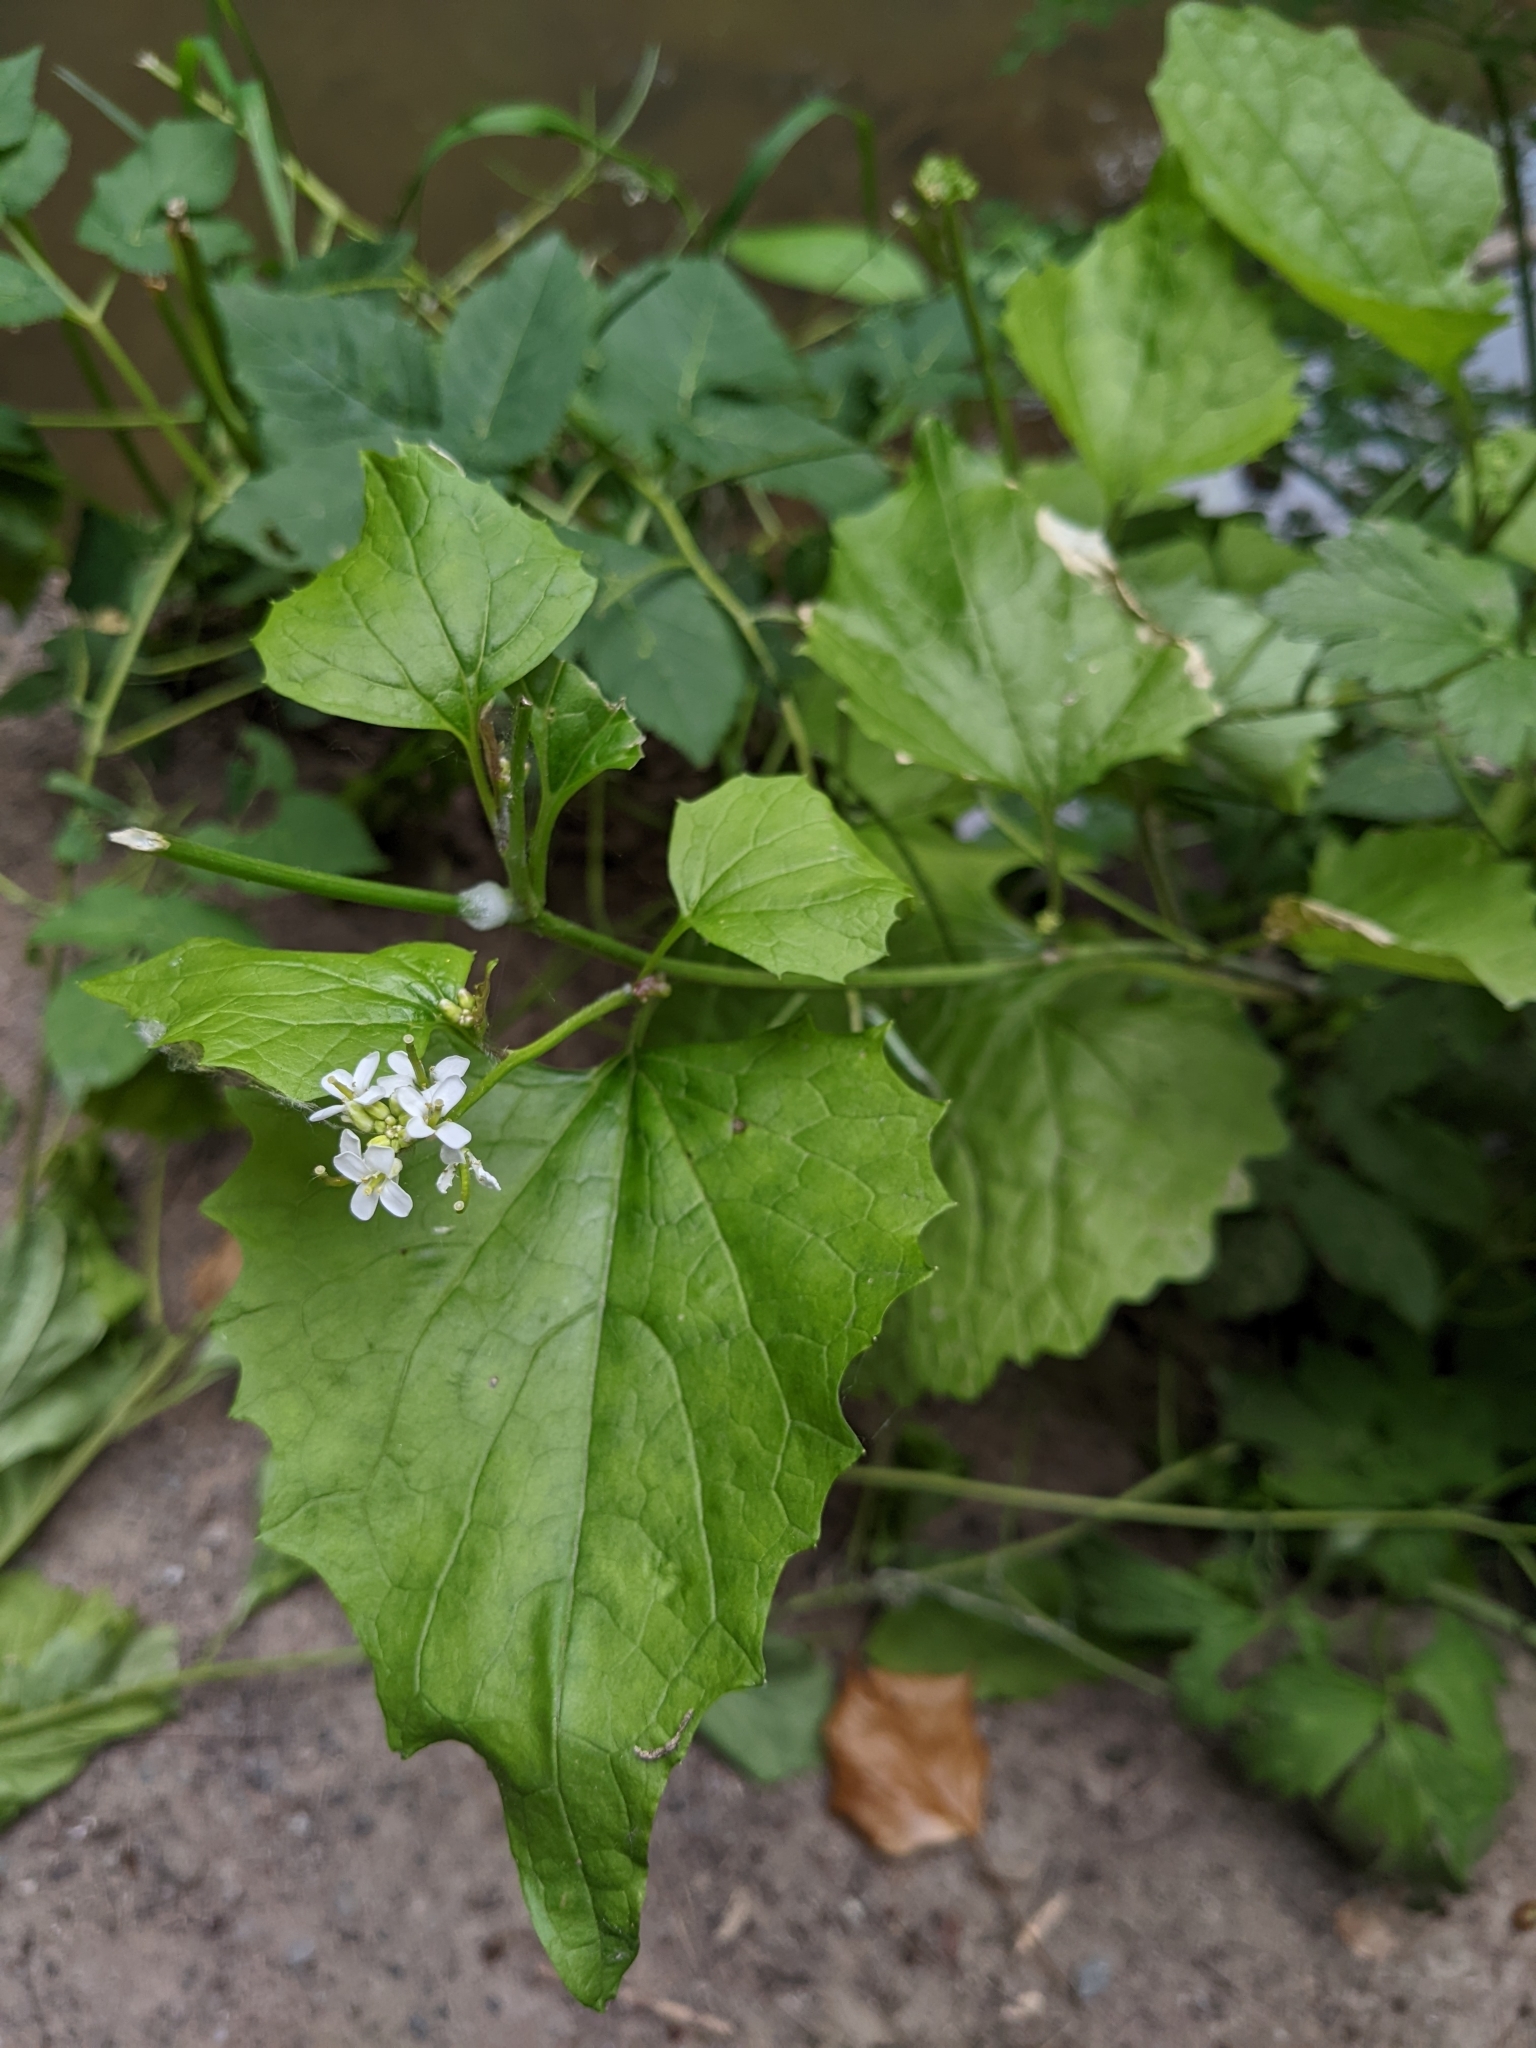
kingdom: Plantae
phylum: Tracheophyta
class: Magnoliopsida
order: Brassicales
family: Brassicaceae
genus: Alliaria
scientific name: Alliaria petiolata
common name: Garlic mustard
